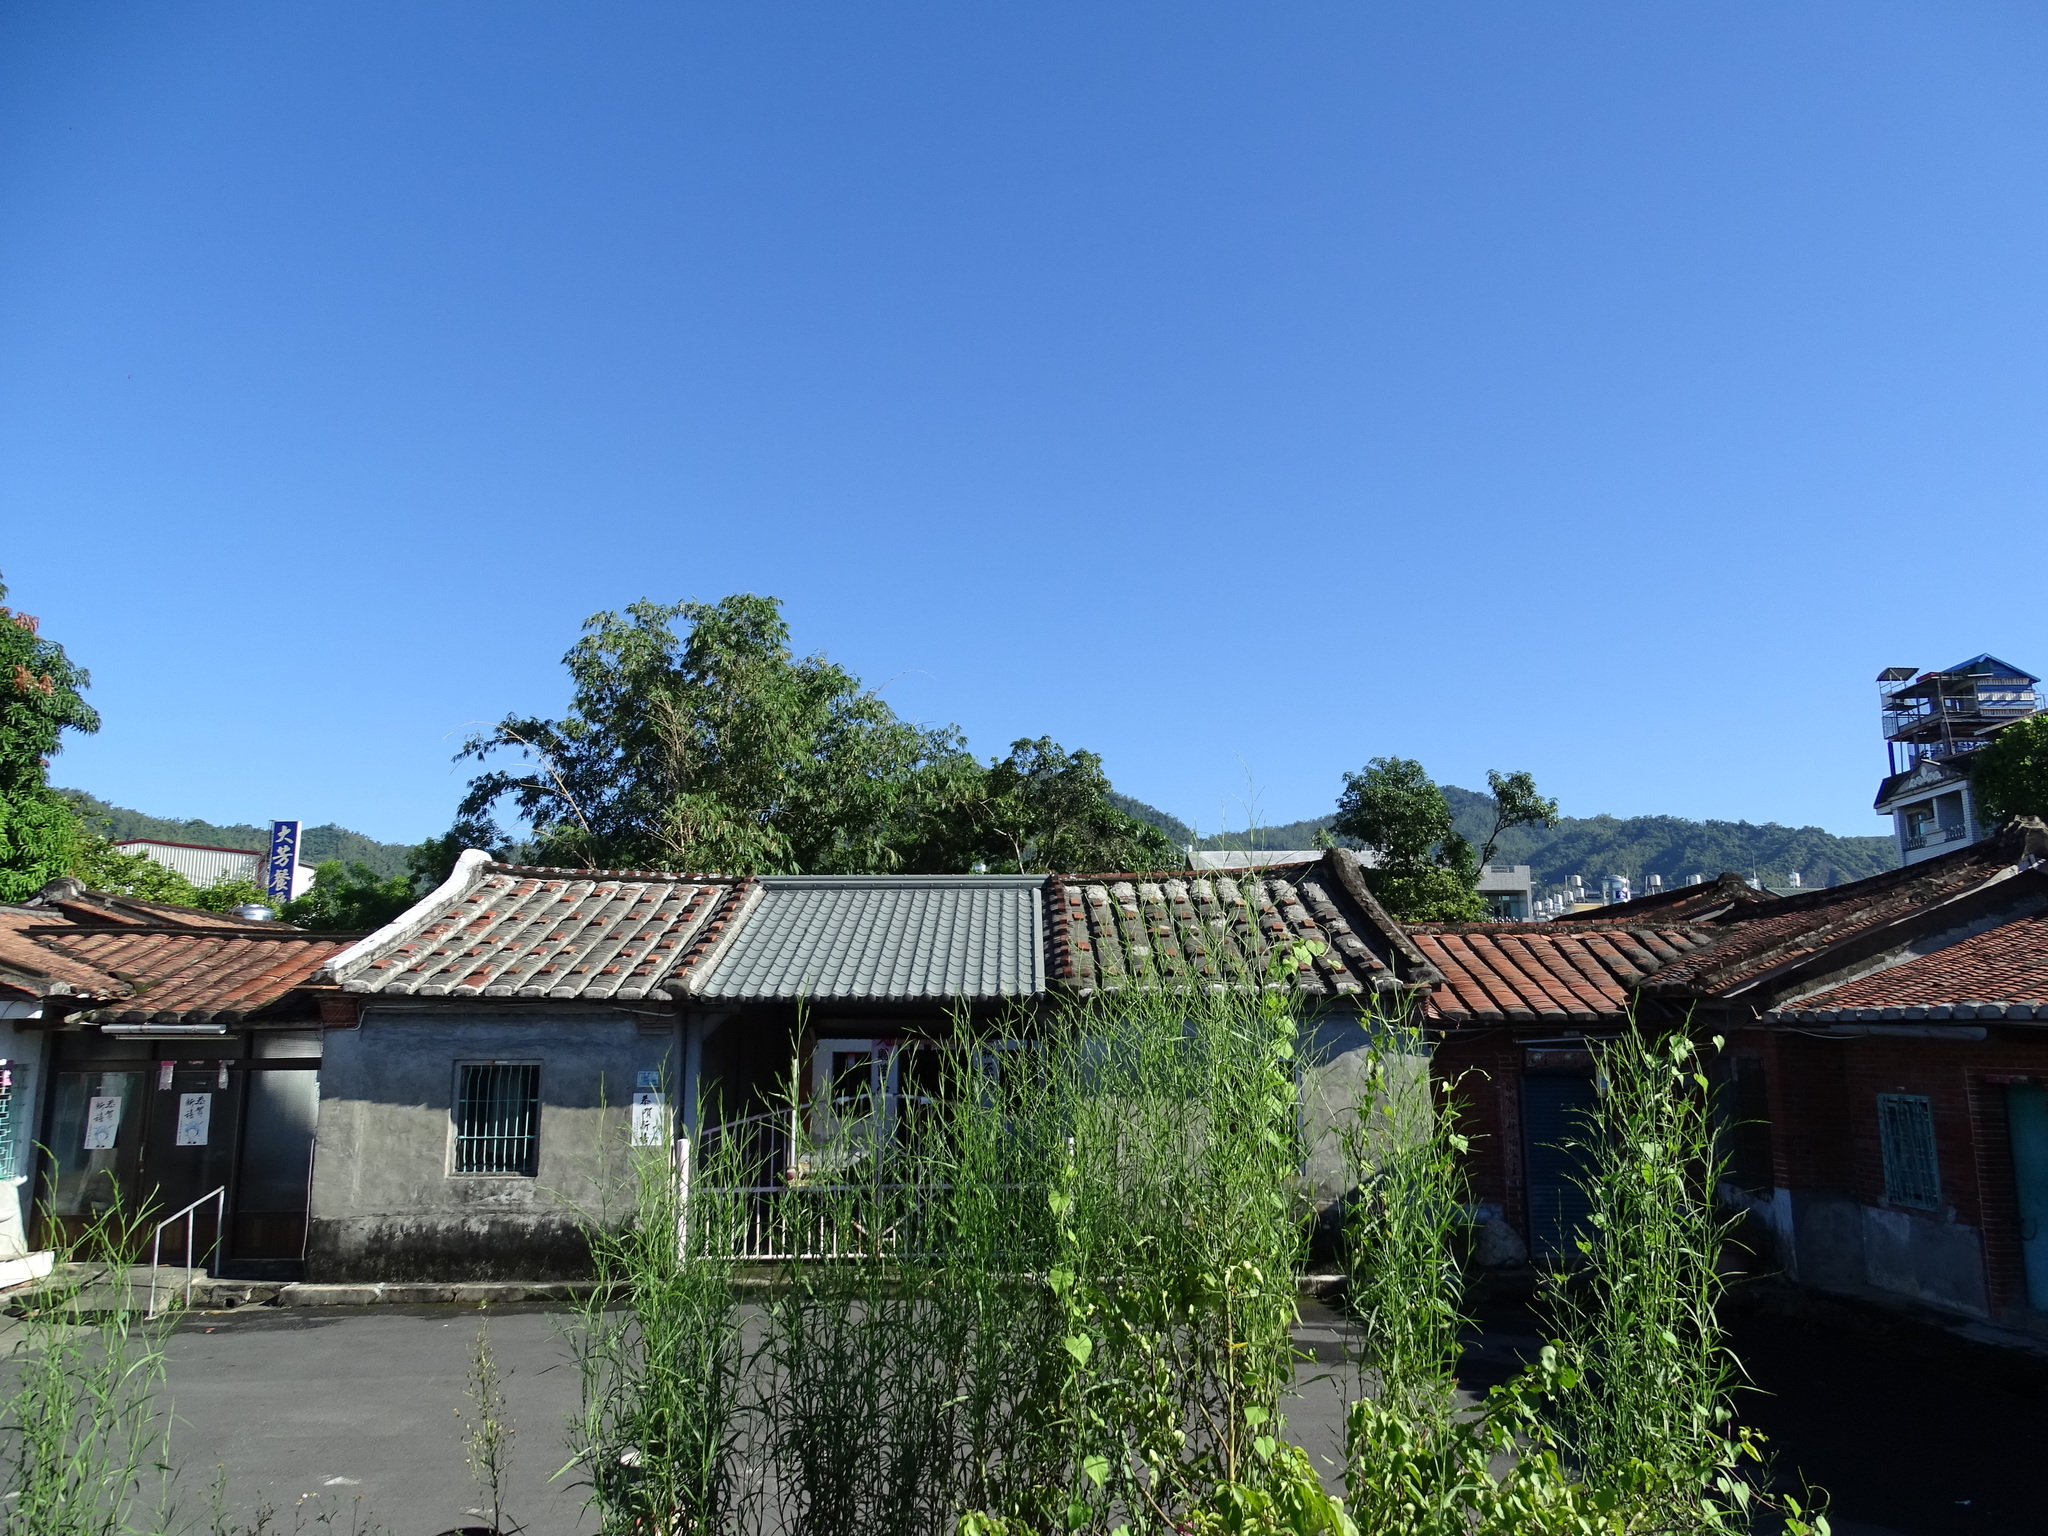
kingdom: Plantae
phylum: Tracheophyta
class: Magnoliopsida
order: Asterales
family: Asteraceae
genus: Symphyotrichum
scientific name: Symphyotrichum subulatum
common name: Annual saltmarsh aster
